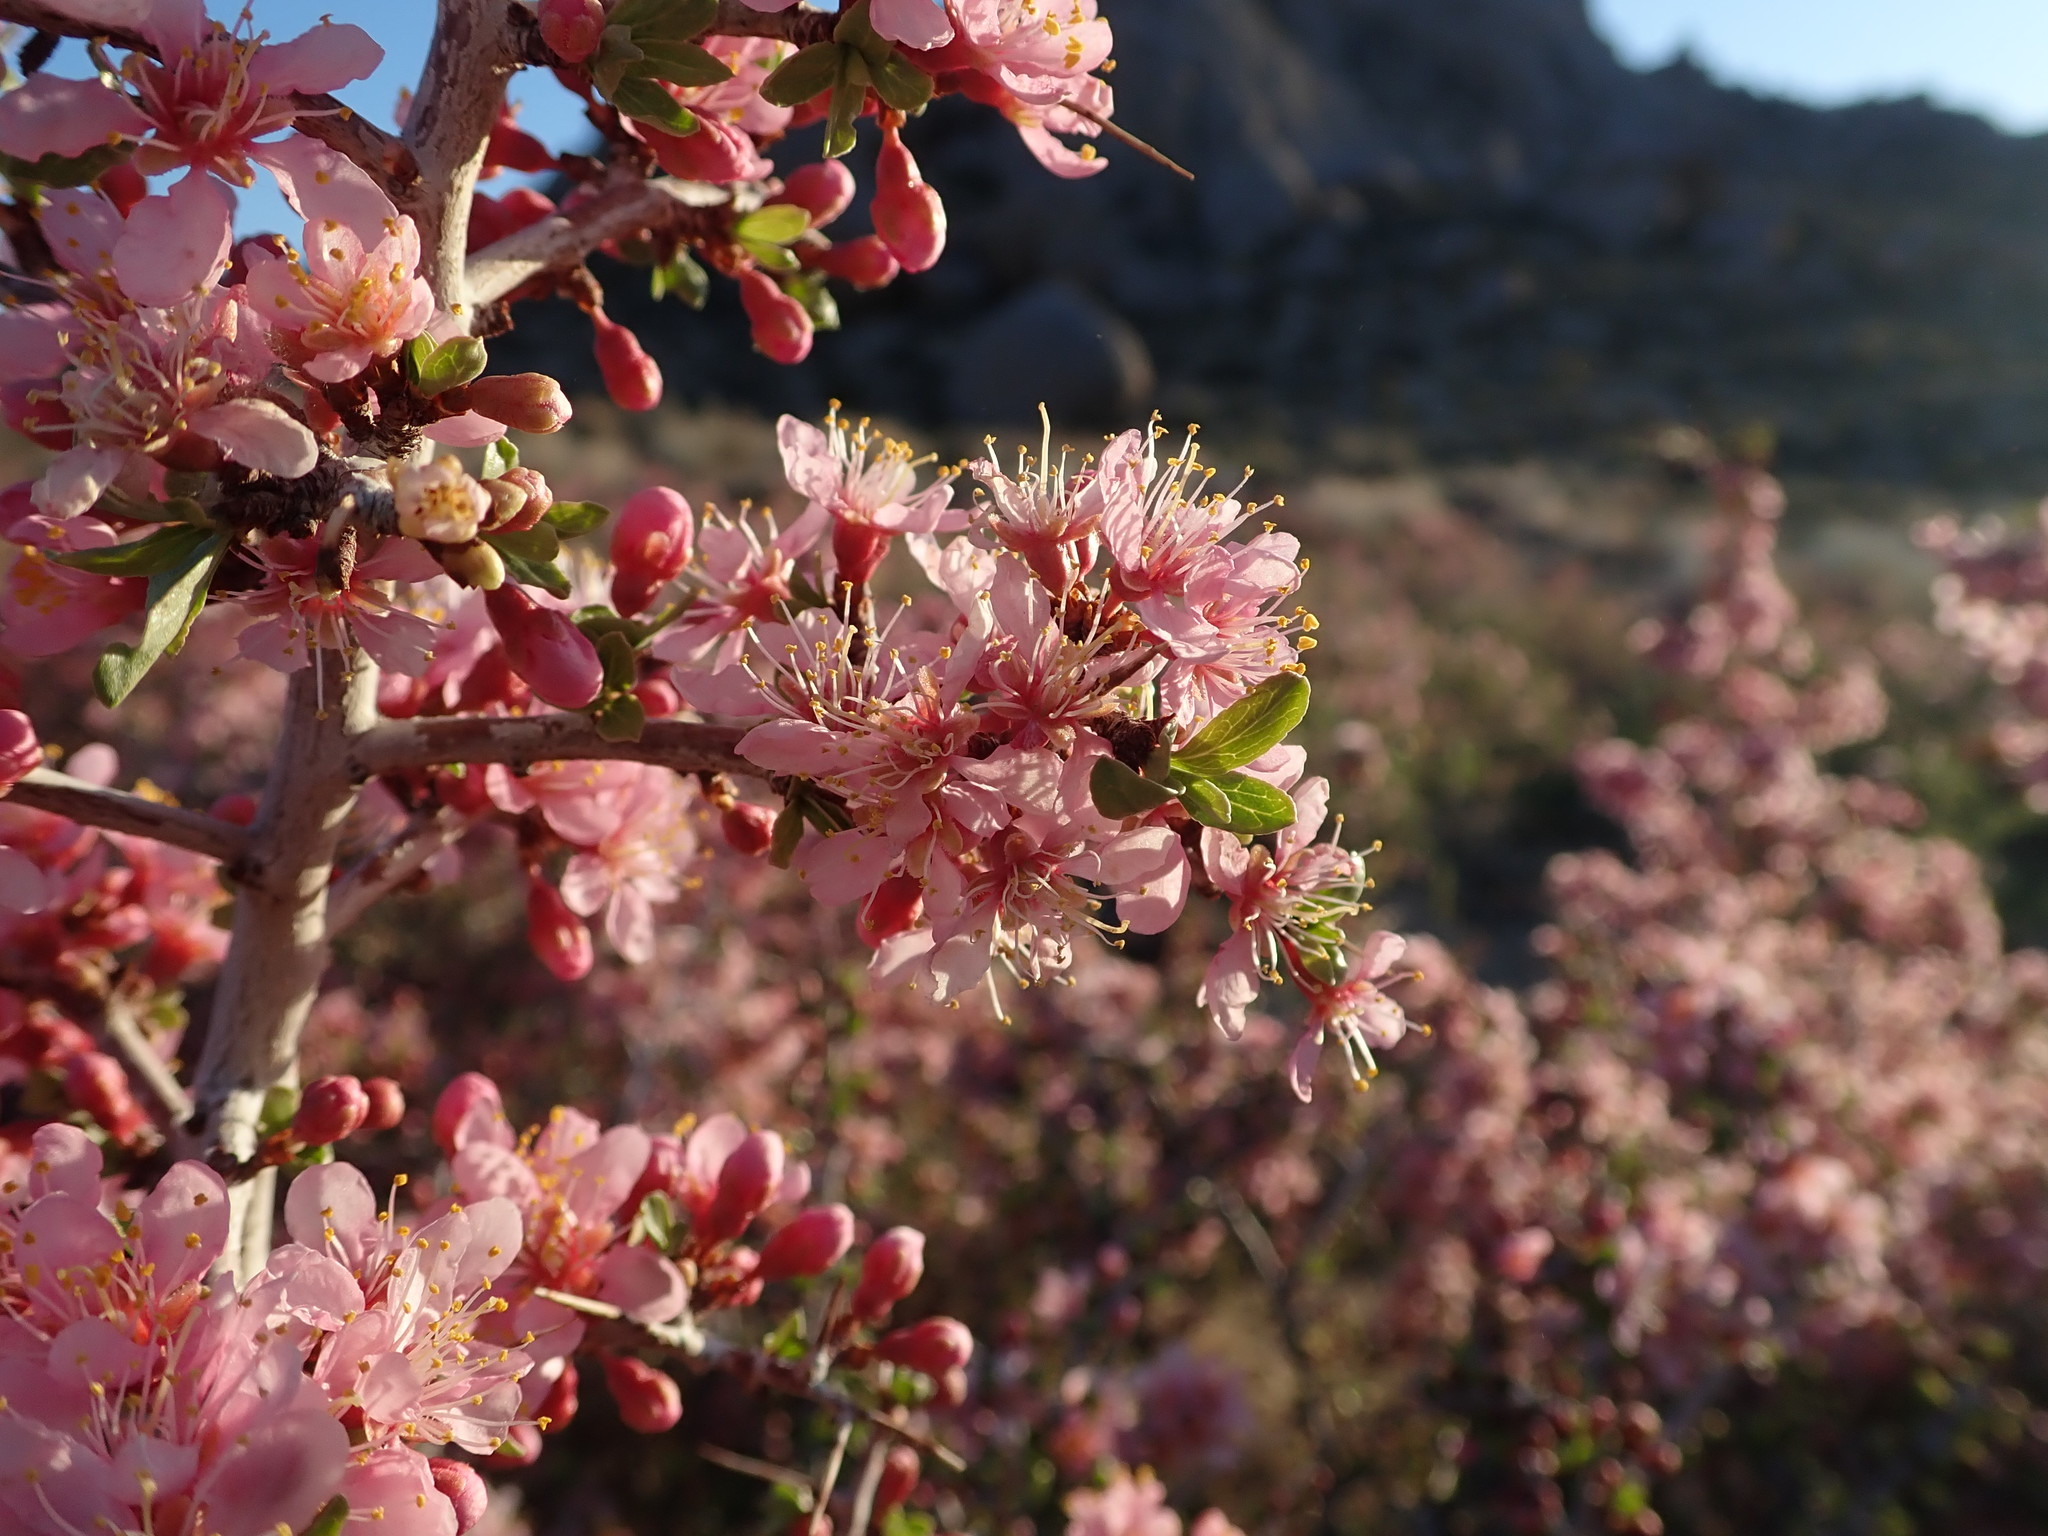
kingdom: Plantae
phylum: Tracheophyta
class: Magnoliopsida
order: Rosales
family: Rosaceae
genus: Prunus
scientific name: Prunus andersonii
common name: Desert peach
